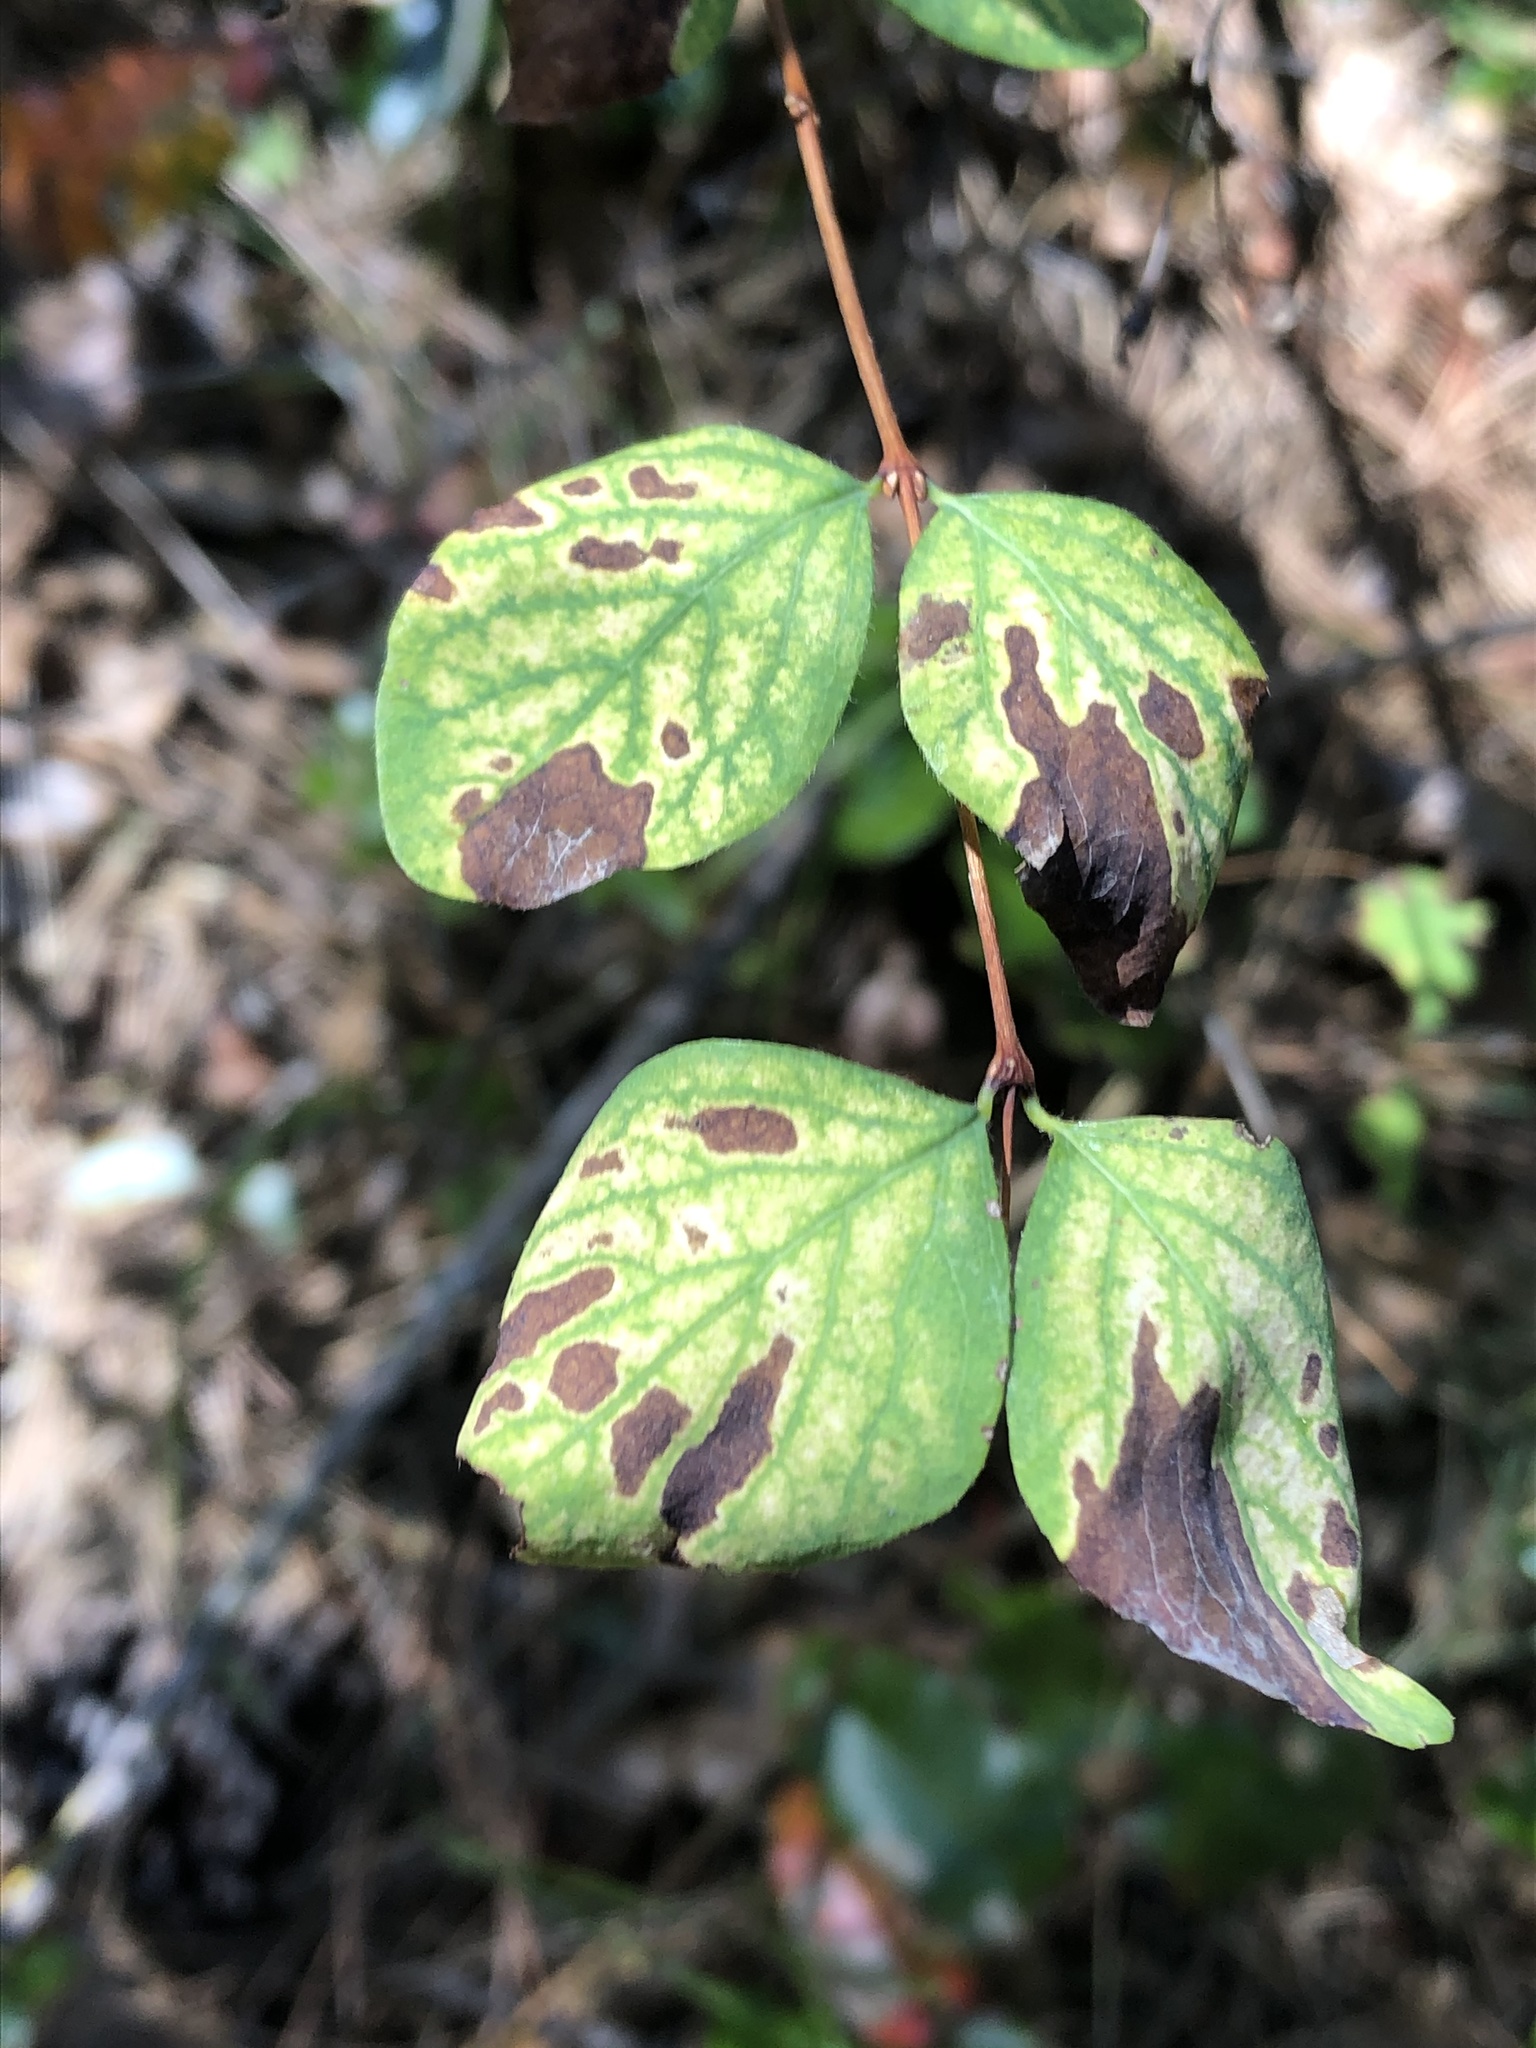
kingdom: Plantae
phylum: Tracheophyta
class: Magnoliopsida
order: Dipsacales
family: Caprifoliaceae
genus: Symphoricarpos
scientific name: Symphoricarpos albus
